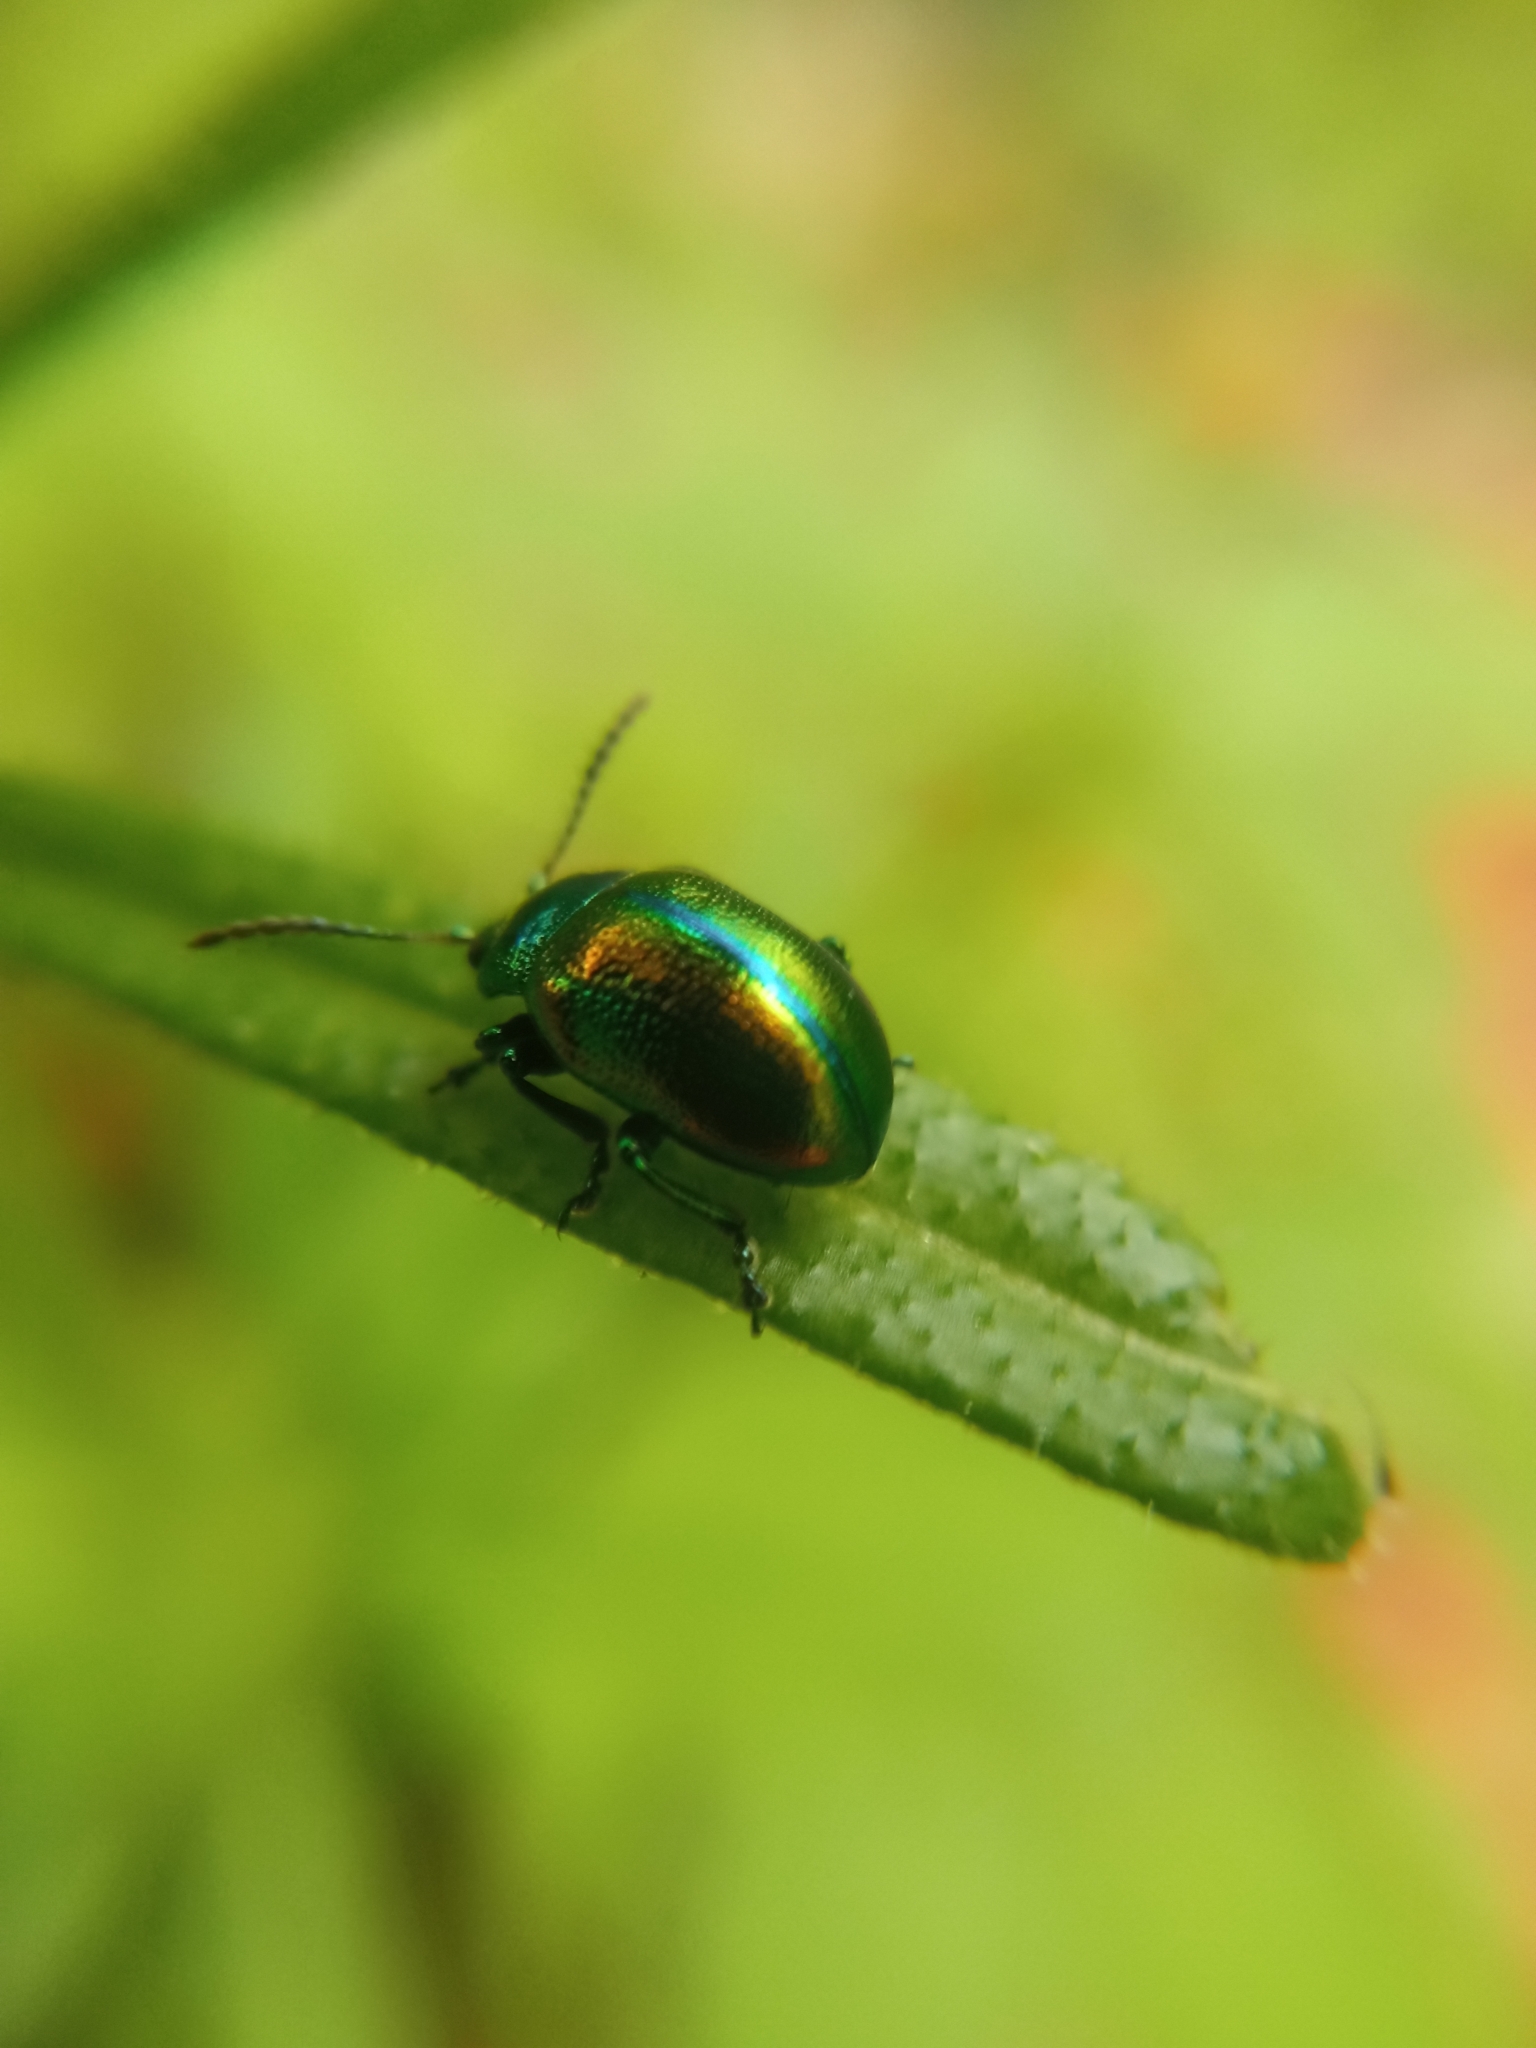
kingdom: Animalia
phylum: Arthropoda
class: Insecta
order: Coleoptera
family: Chrysomelidae
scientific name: Chrysomelidae
